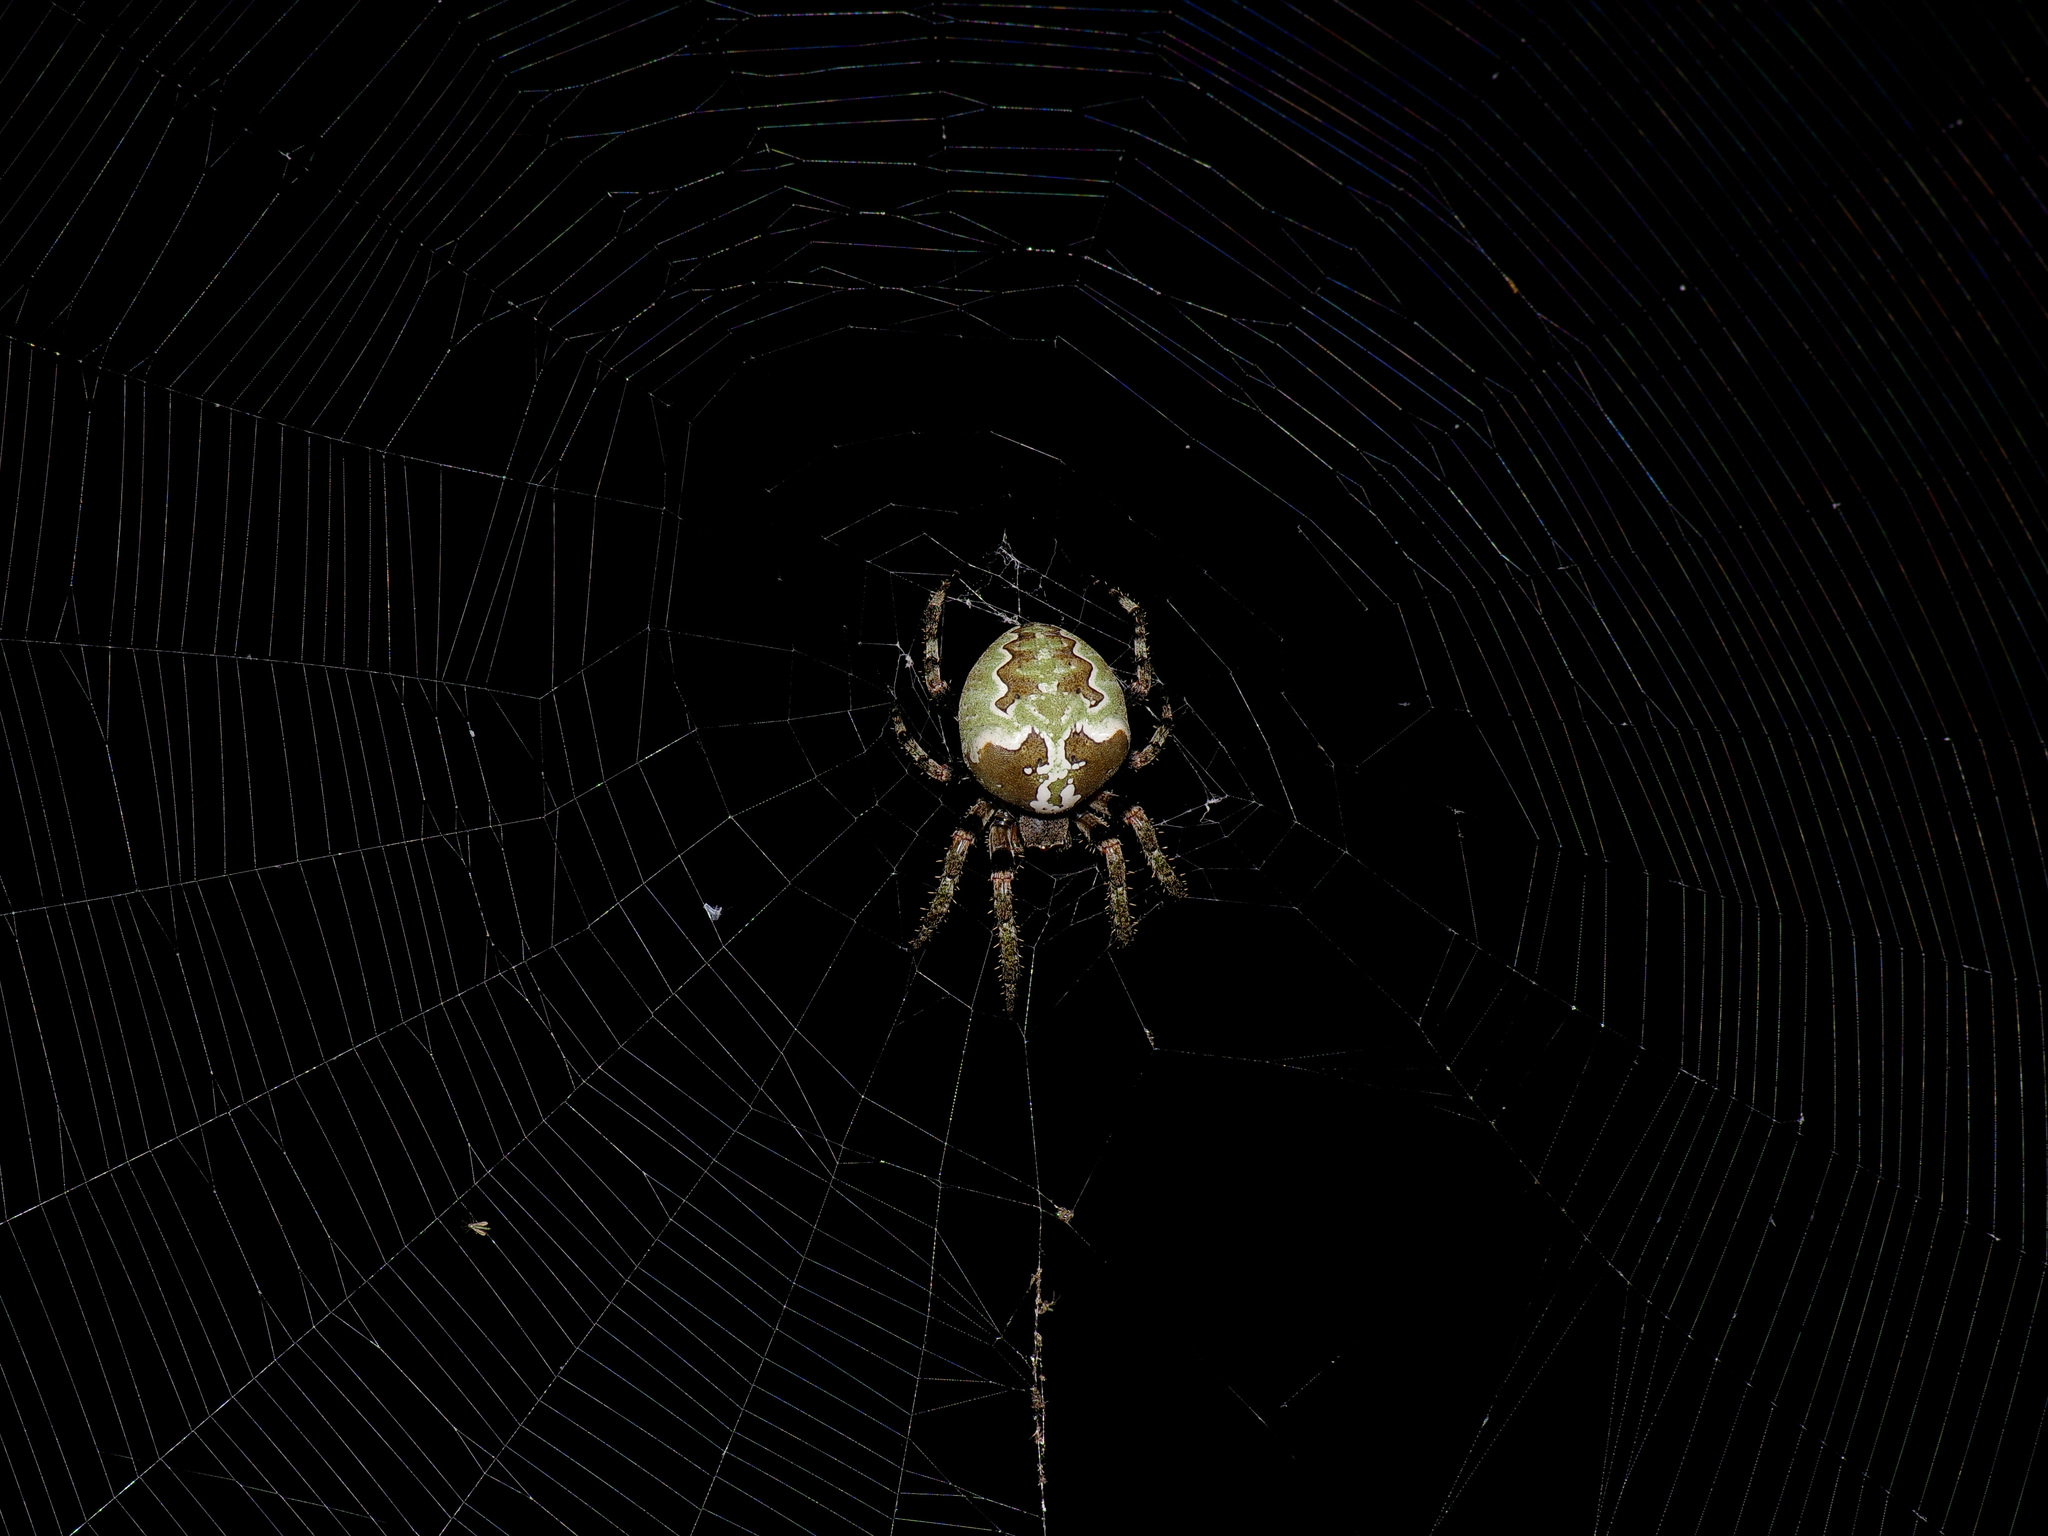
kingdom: Animalia
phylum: Arthropoda
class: Arachnida
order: Araneae
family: Araneidae
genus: Araneus
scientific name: Araneus bicentenarius
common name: Giant lichen orbweaver
